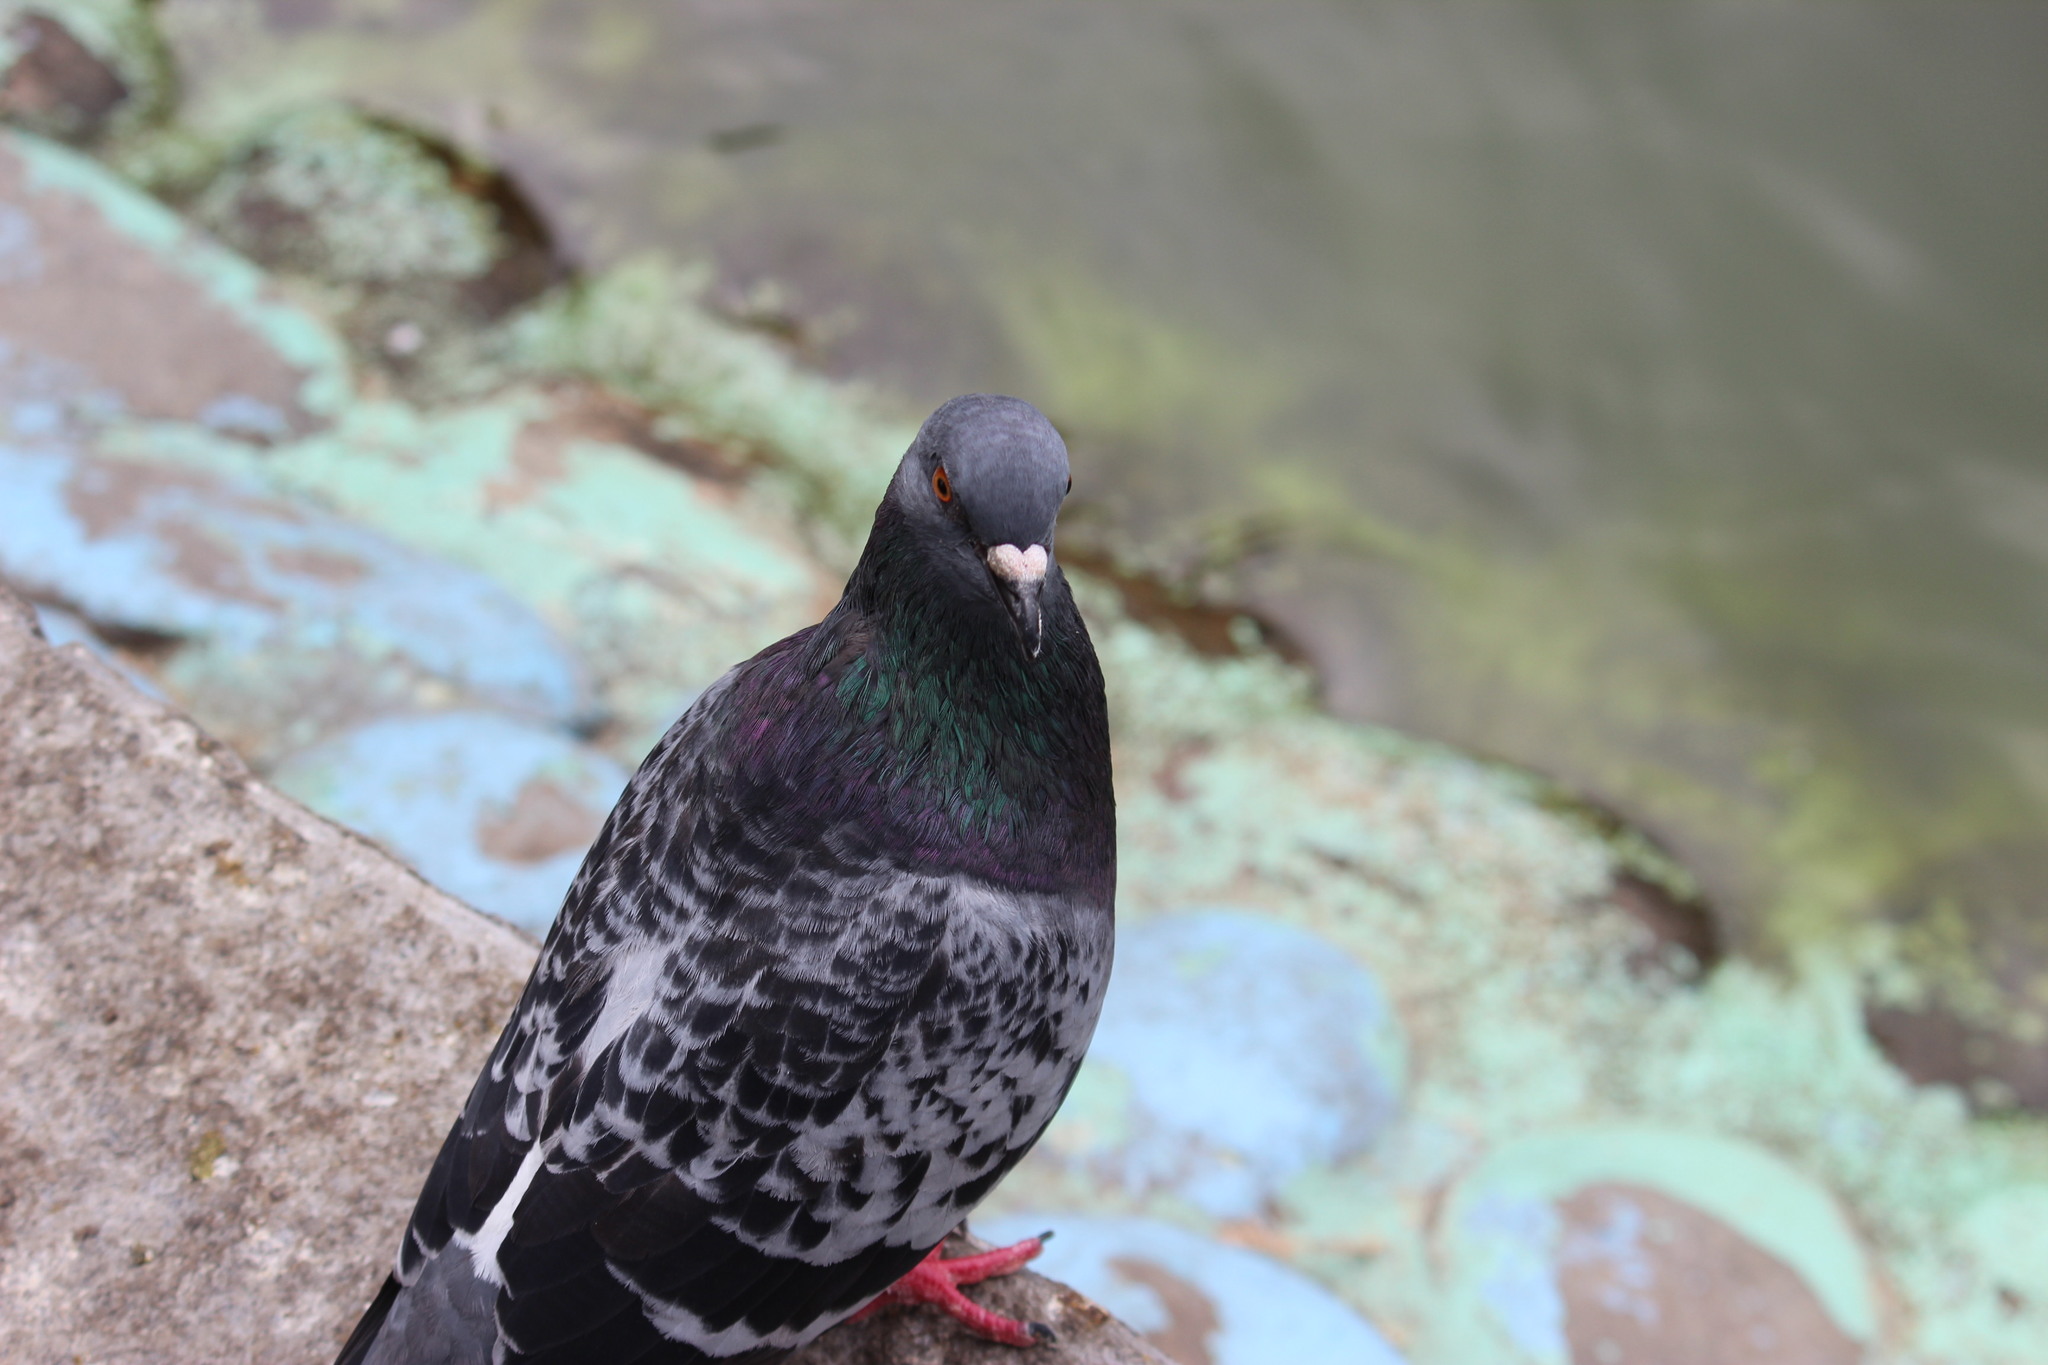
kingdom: Animalia
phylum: Chordata
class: Aves
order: Columbiformes
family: Columbidae
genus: Columba
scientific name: Columba livia
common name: Rock pigeon
